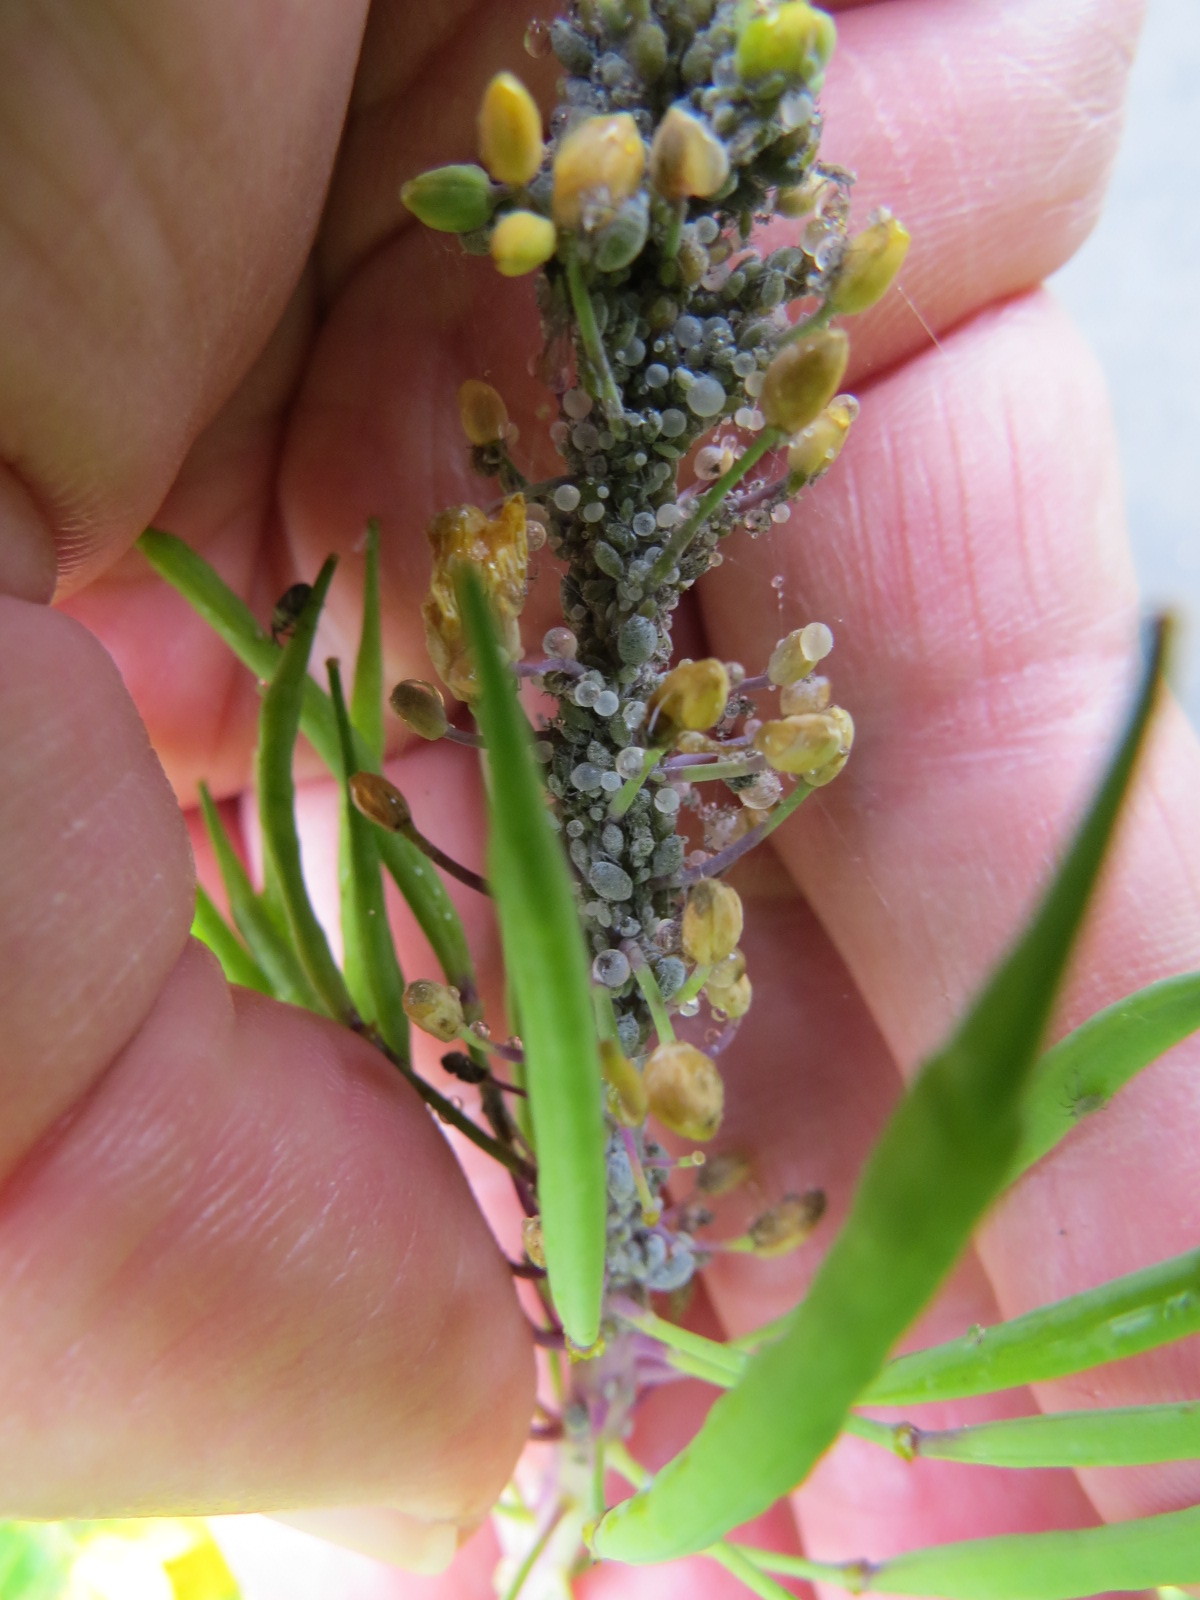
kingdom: Animalia
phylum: Arthropoda
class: Insecta
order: Hemiptera
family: Aphididae
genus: Brevicoryne
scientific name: Brevicoryne brassicae
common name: Cabbage aphid
